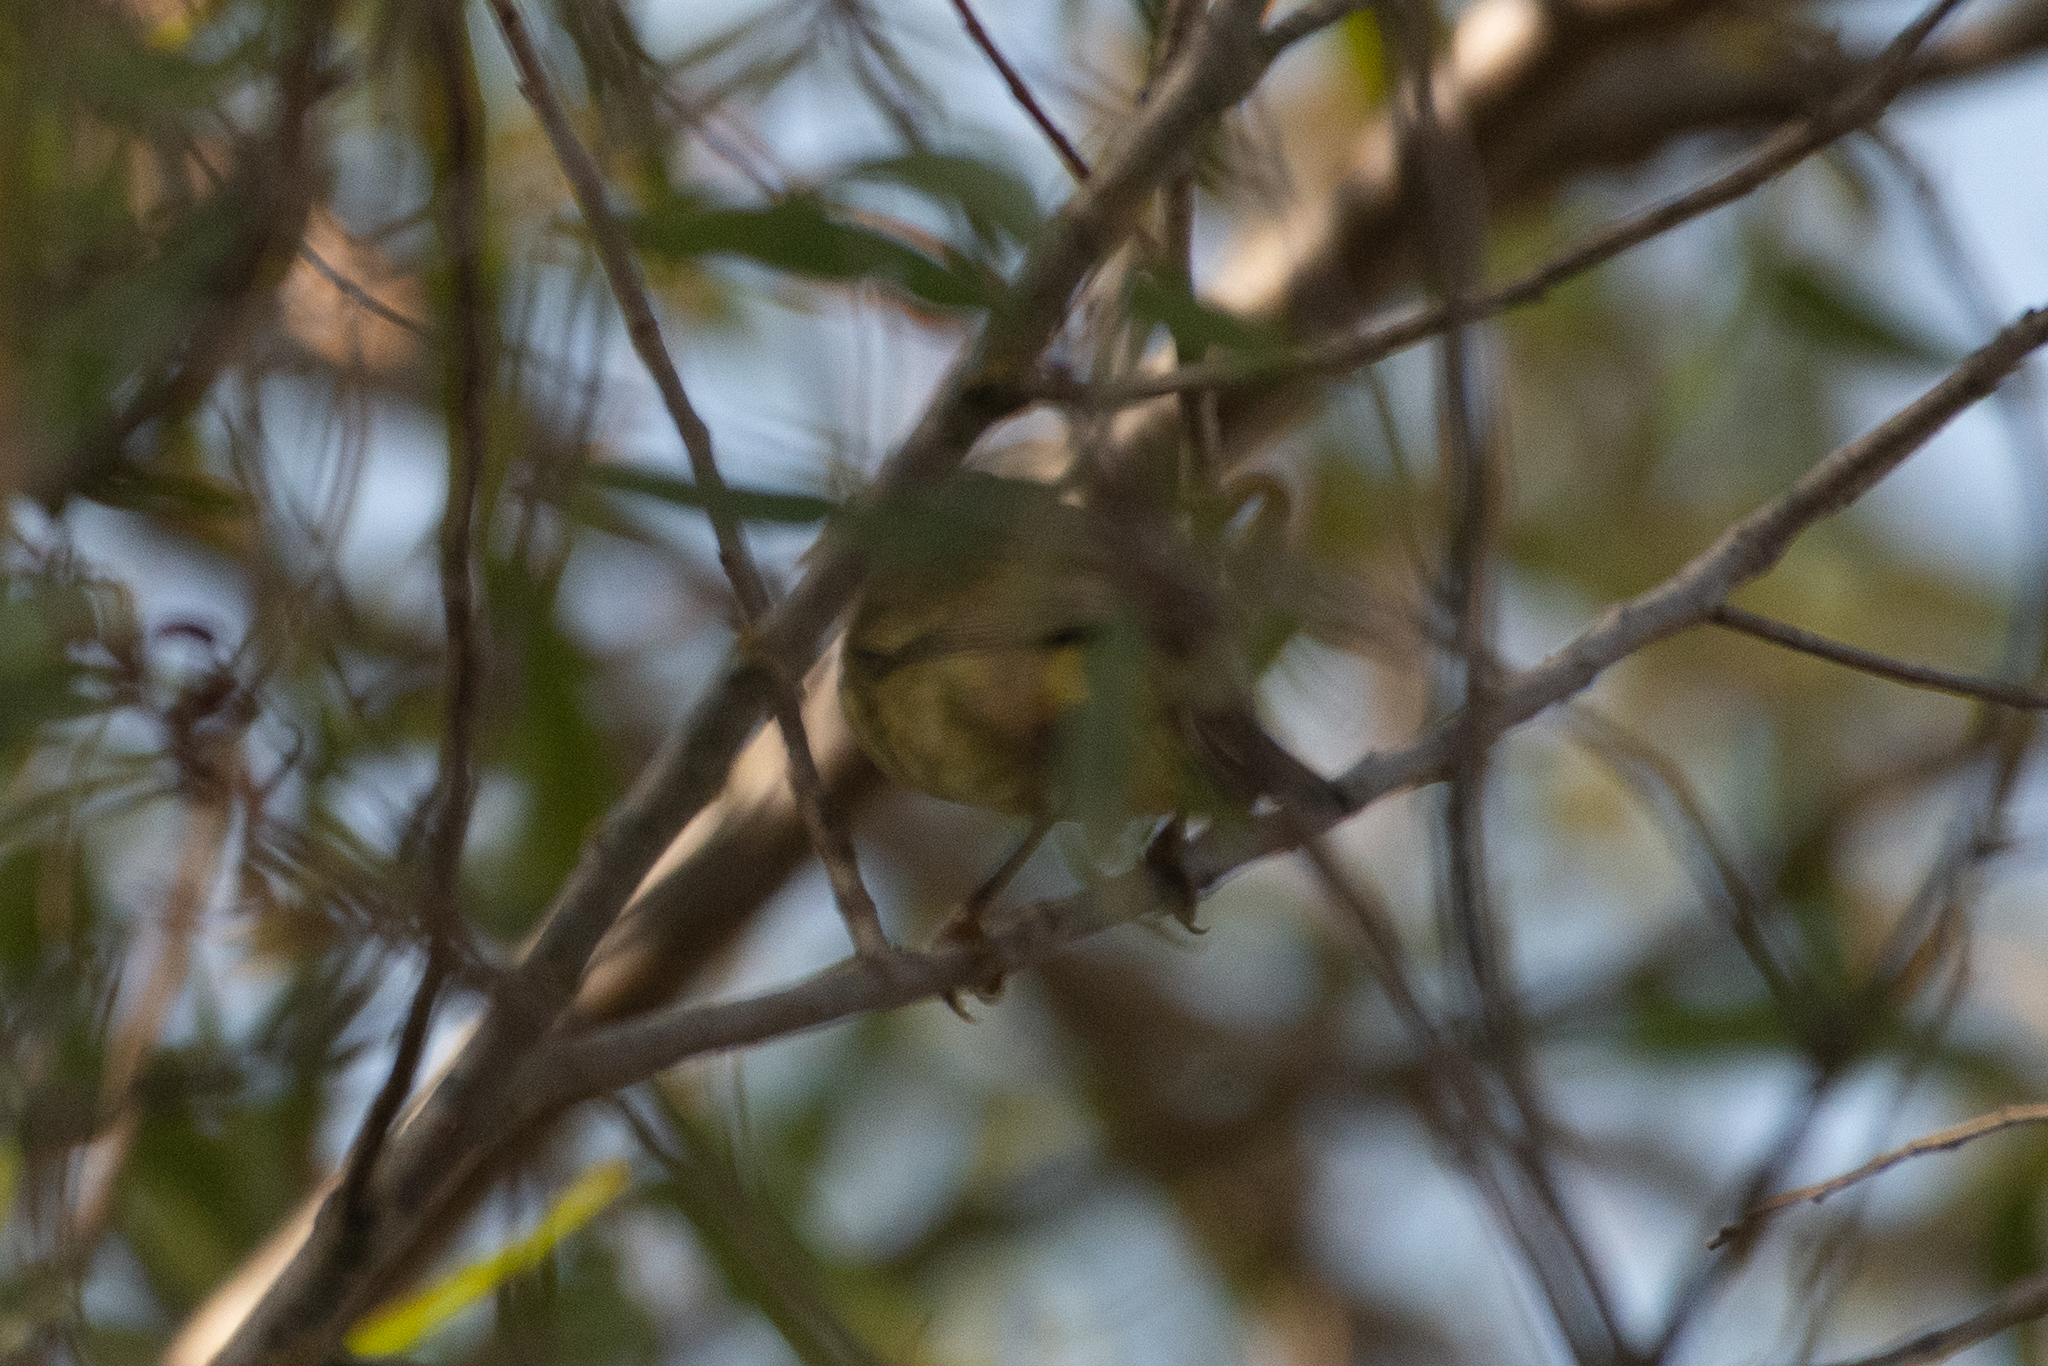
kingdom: Animalia
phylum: Chordata
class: Aves
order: Passeriformes
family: Parulidae
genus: Leiothlypis
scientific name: Leiothlypis celata
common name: Orange-crowned warbler
